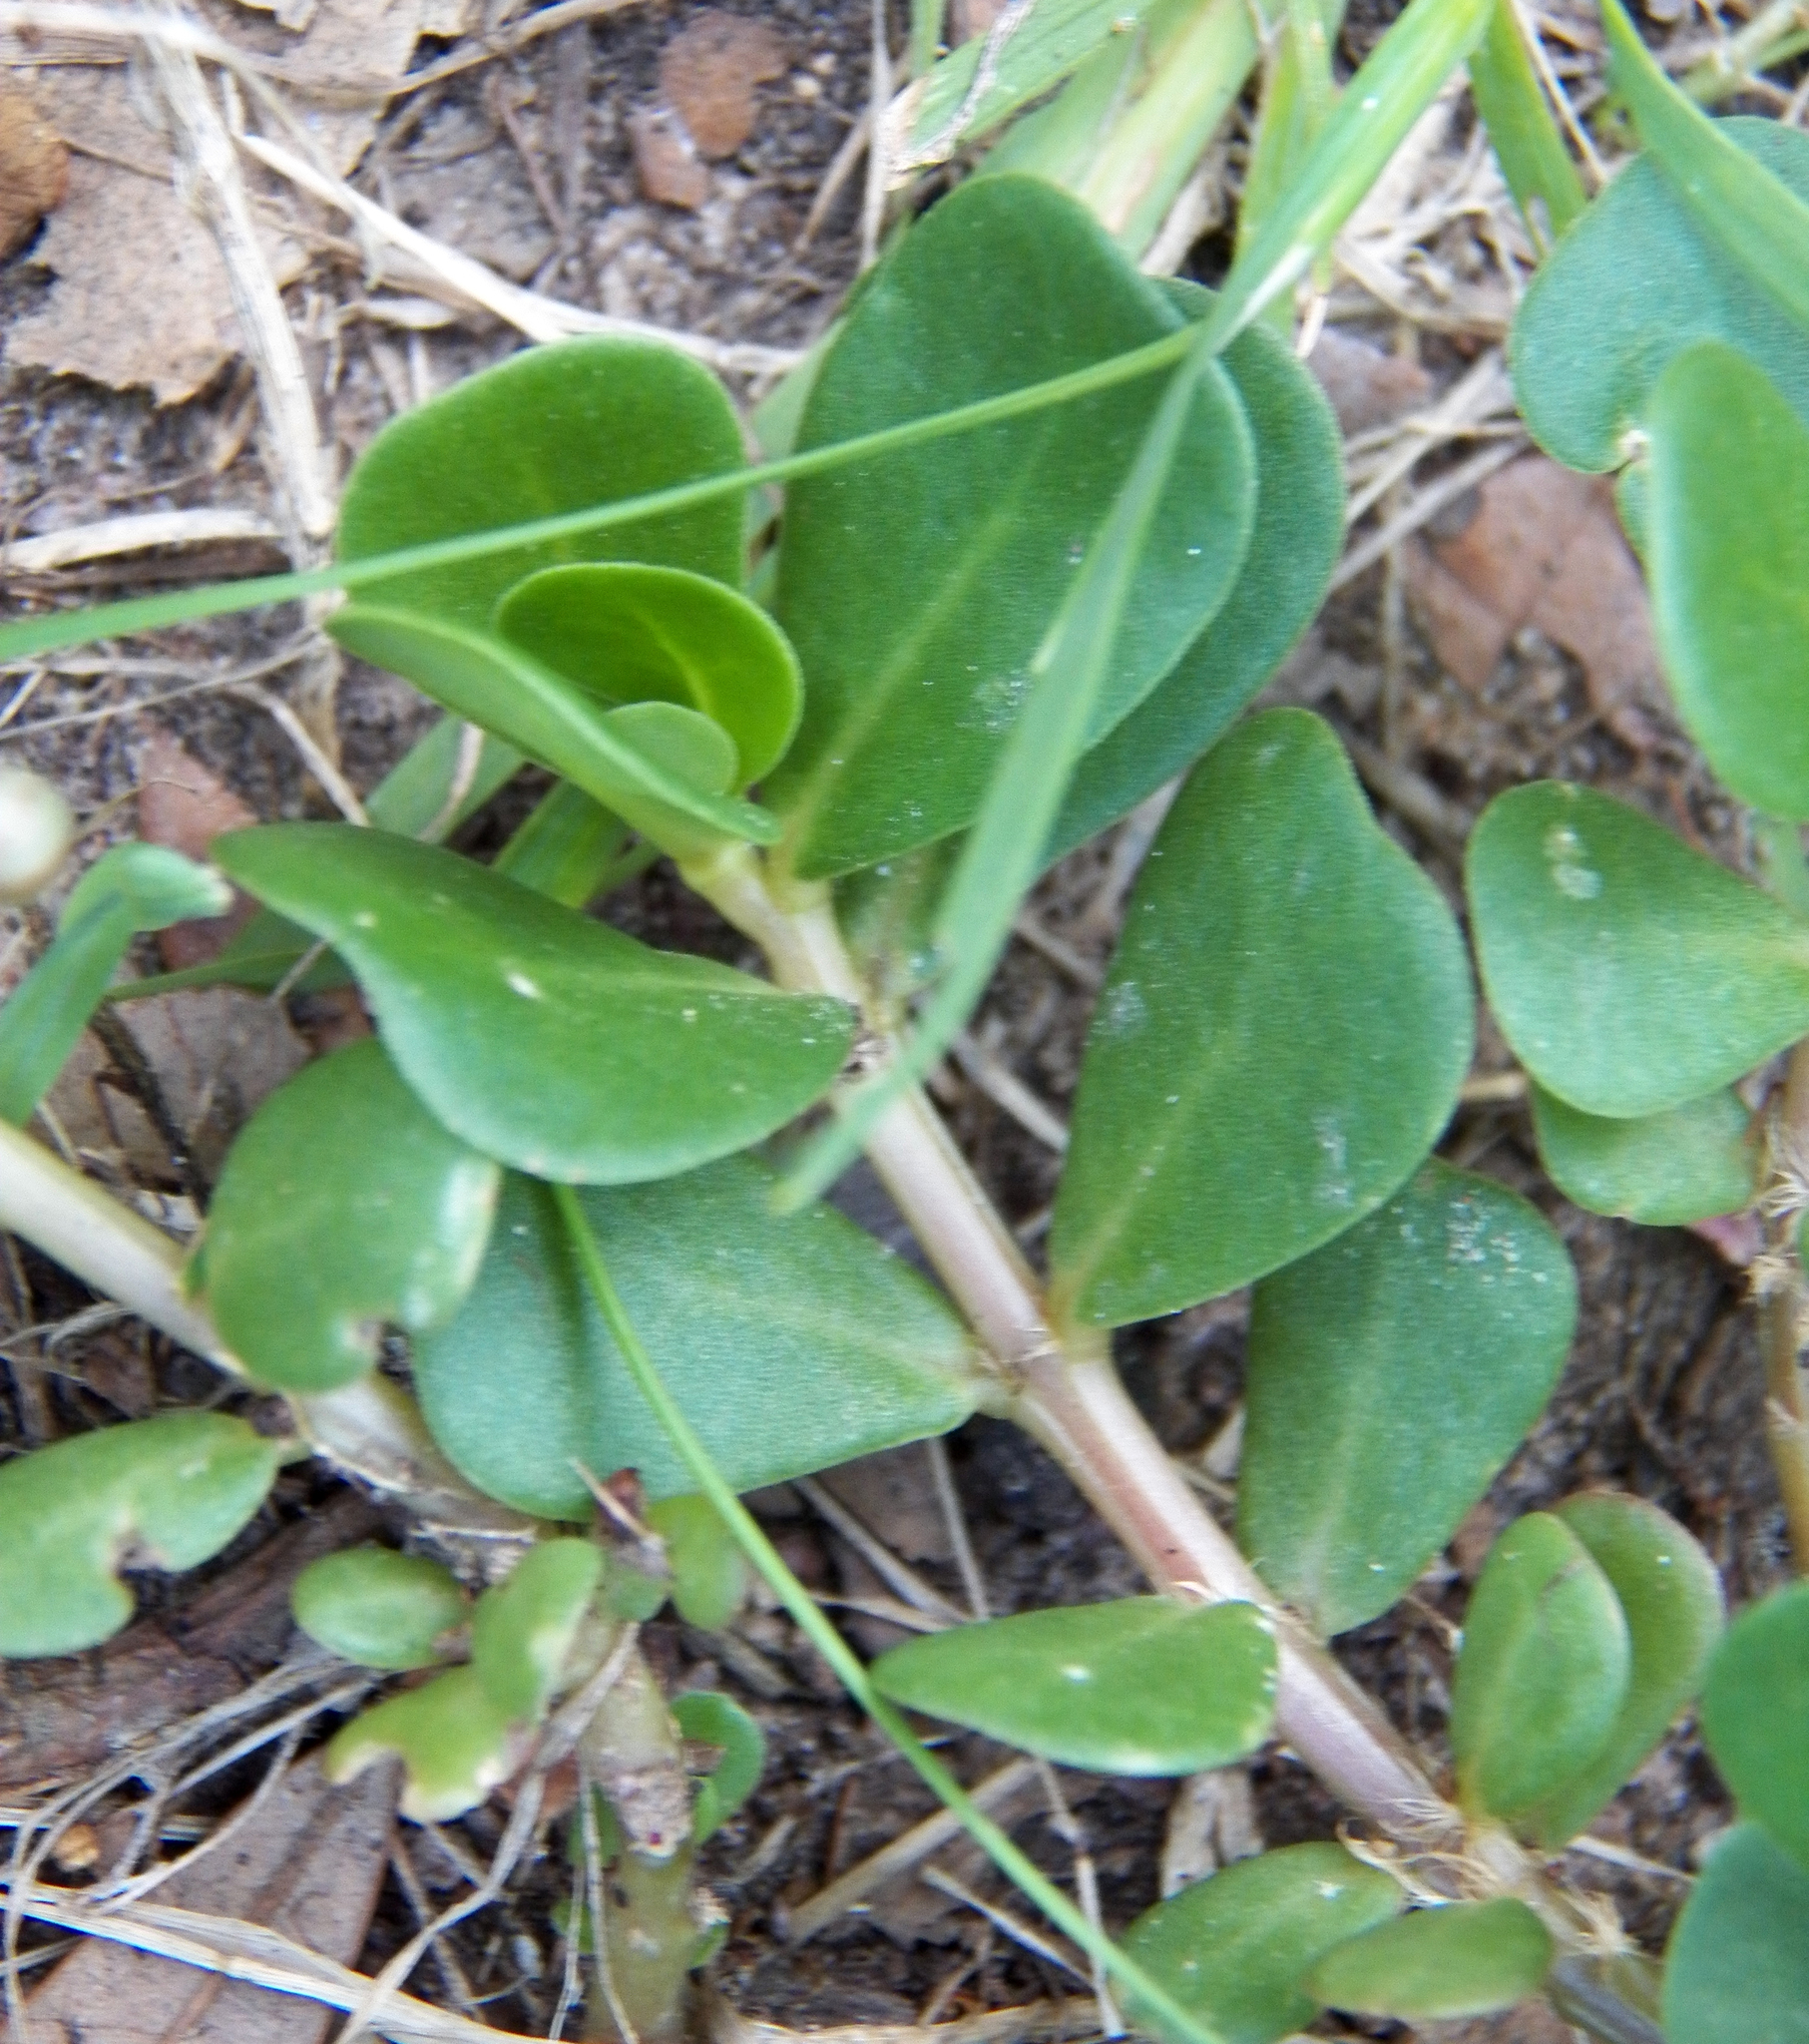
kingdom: Plantae
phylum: Tracheophyta
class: Magnoliopsida
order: Caryophyllales
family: Portulacaceae
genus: Portulaca
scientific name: Portulaca oleracea
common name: Common purslane
